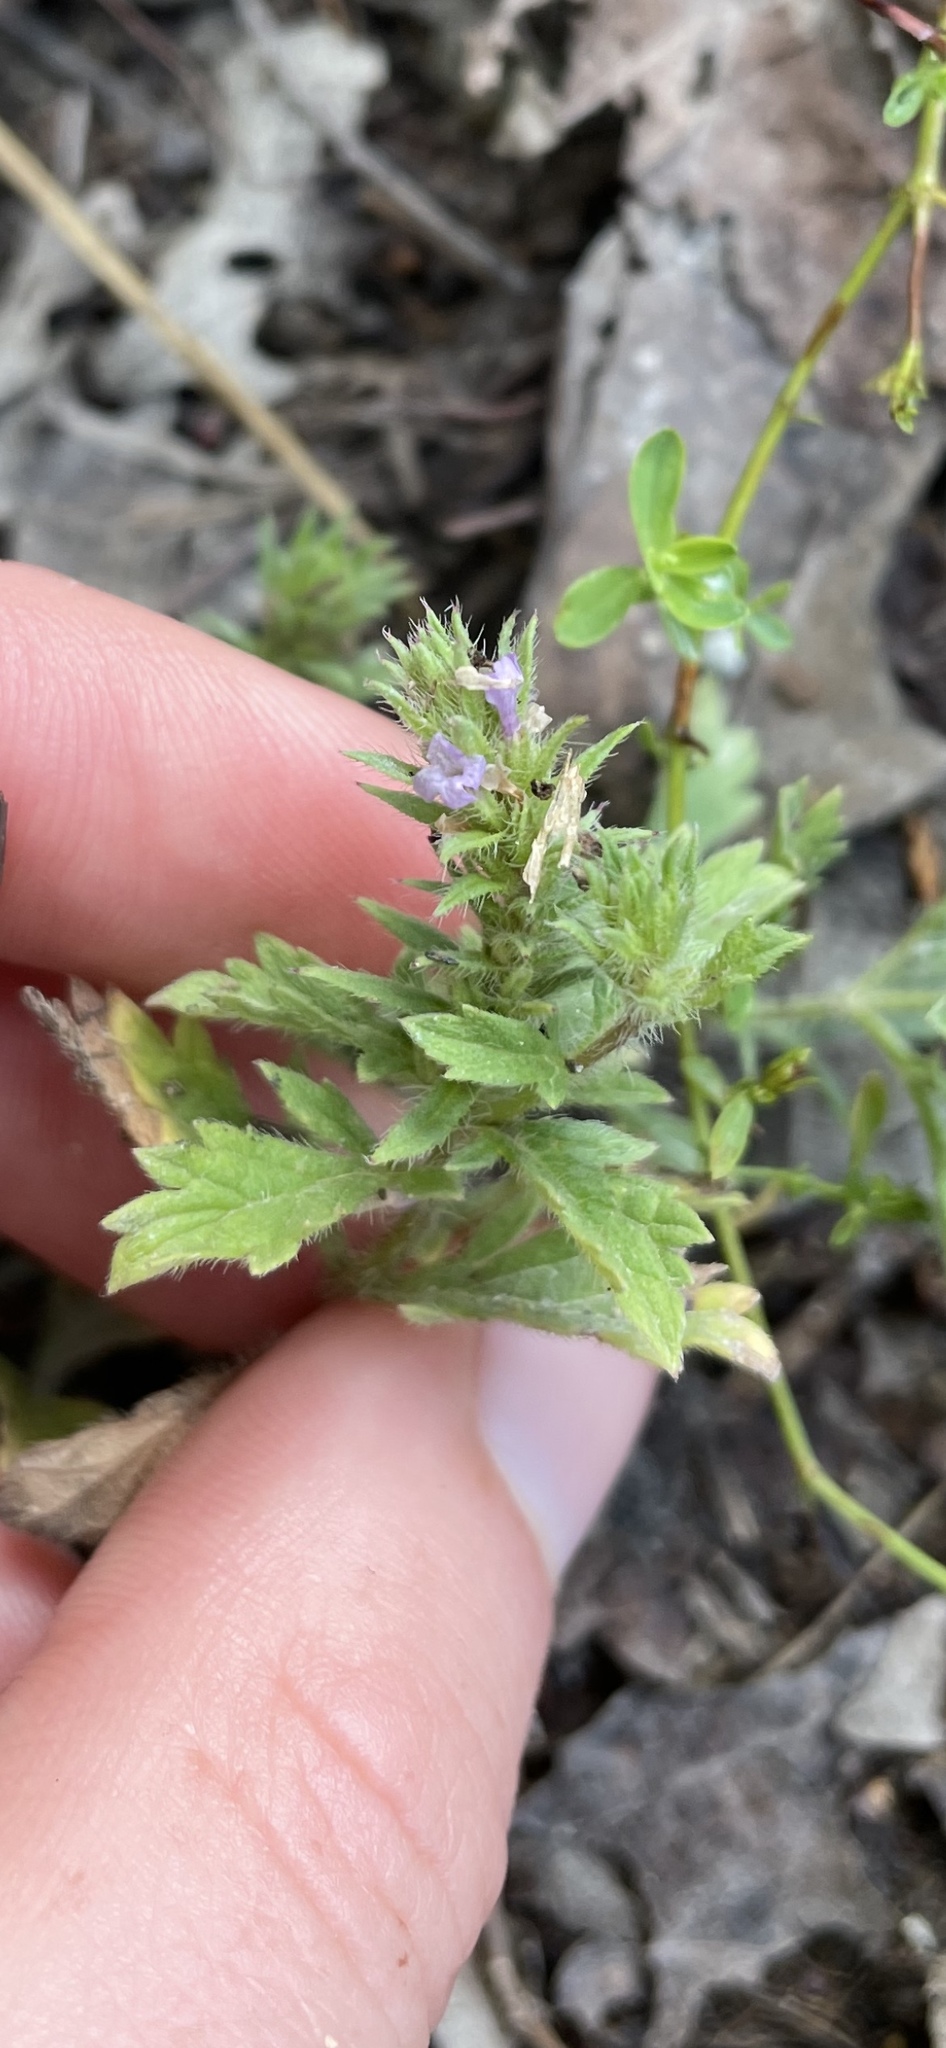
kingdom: Plantae
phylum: Tracheophyta
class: Magnoliopsida
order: Lamiales
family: Verbenaceae
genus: Verbena
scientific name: Verbena bracteata
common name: Bracted vervain
